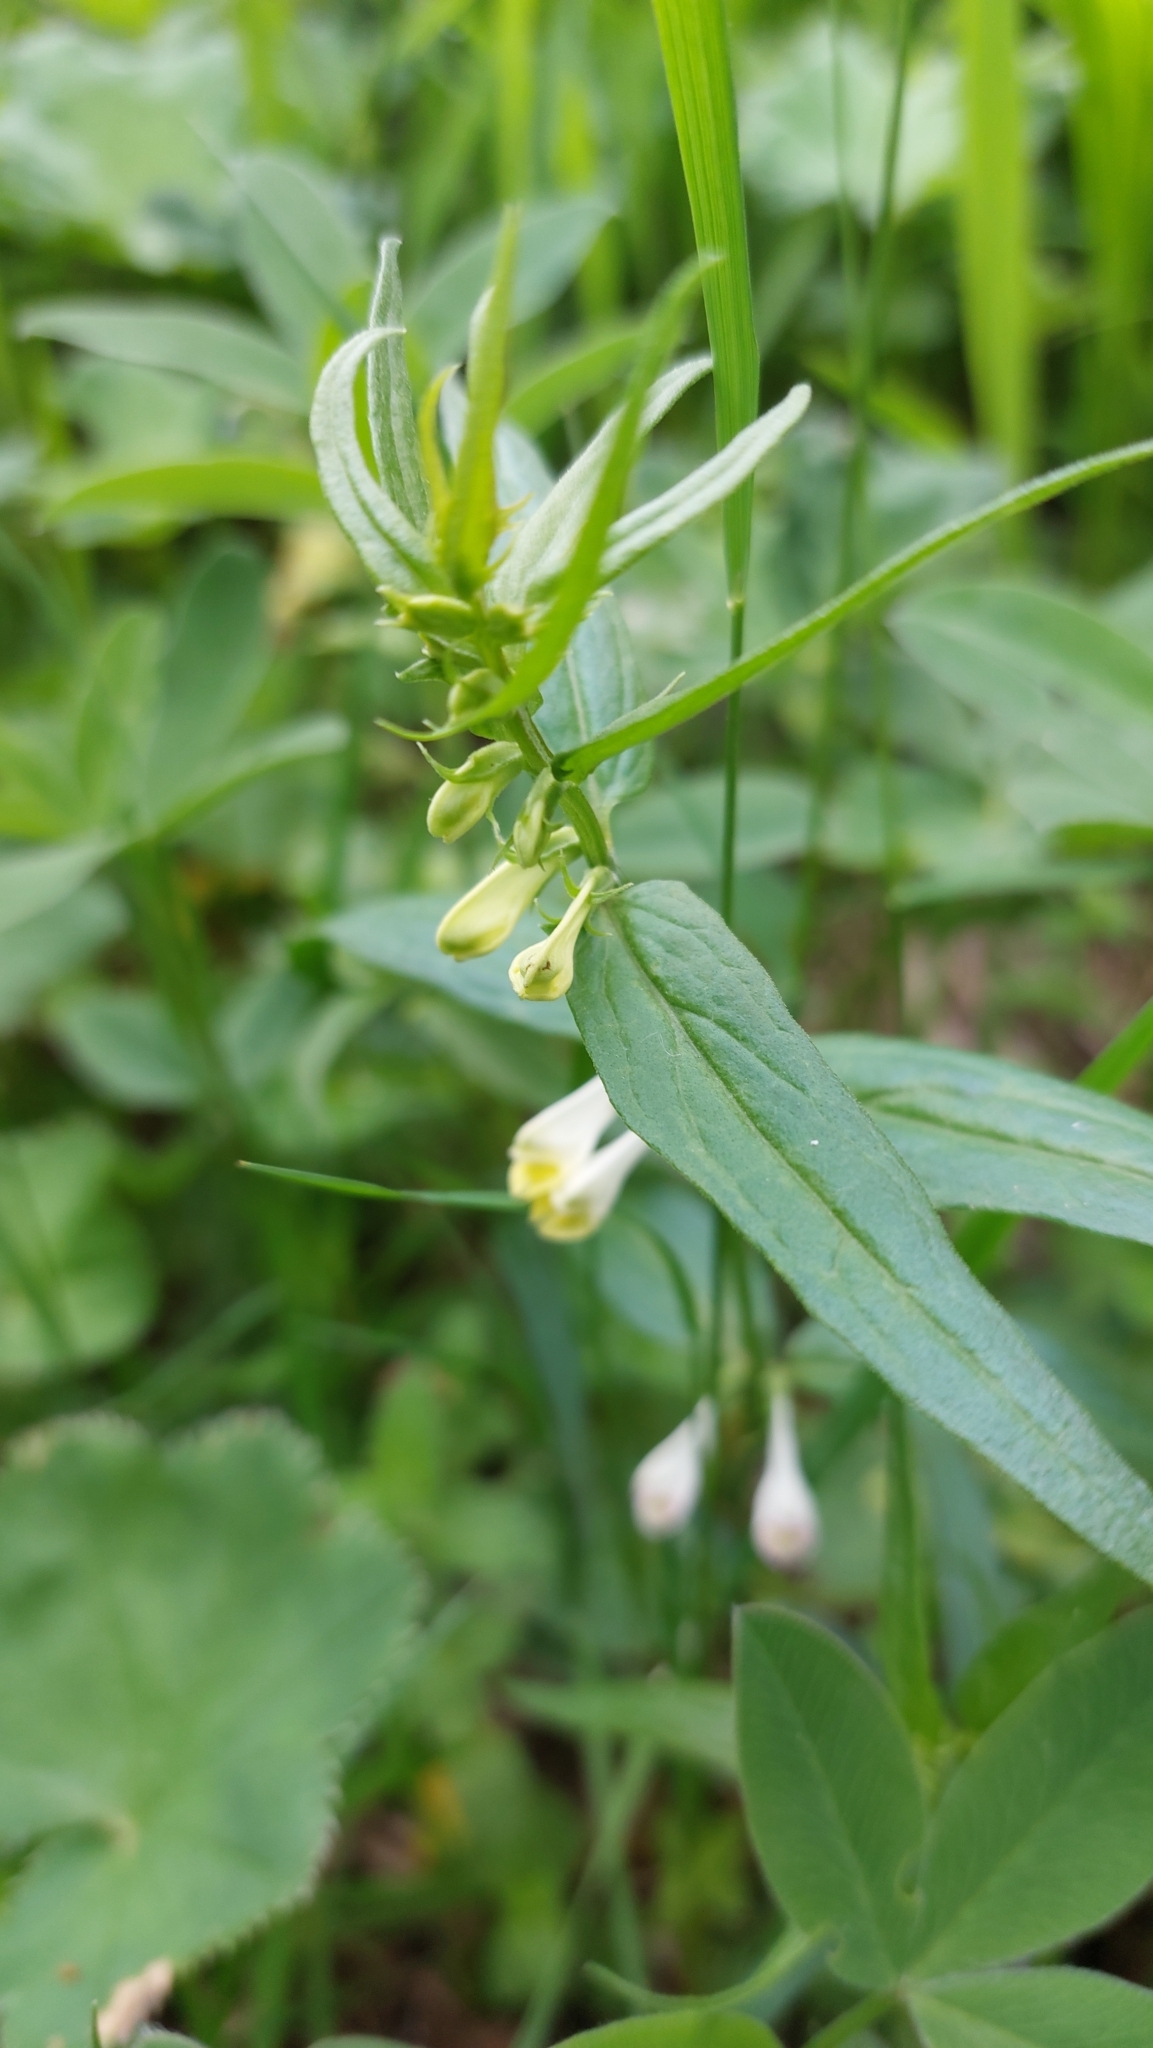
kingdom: Plantae
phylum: Tracheophyta
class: Magnoliopsida
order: Lamiales
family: Orobanchaceae
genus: Melampyrum
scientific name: Melampyrum pratense
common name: Common cow-wheat
